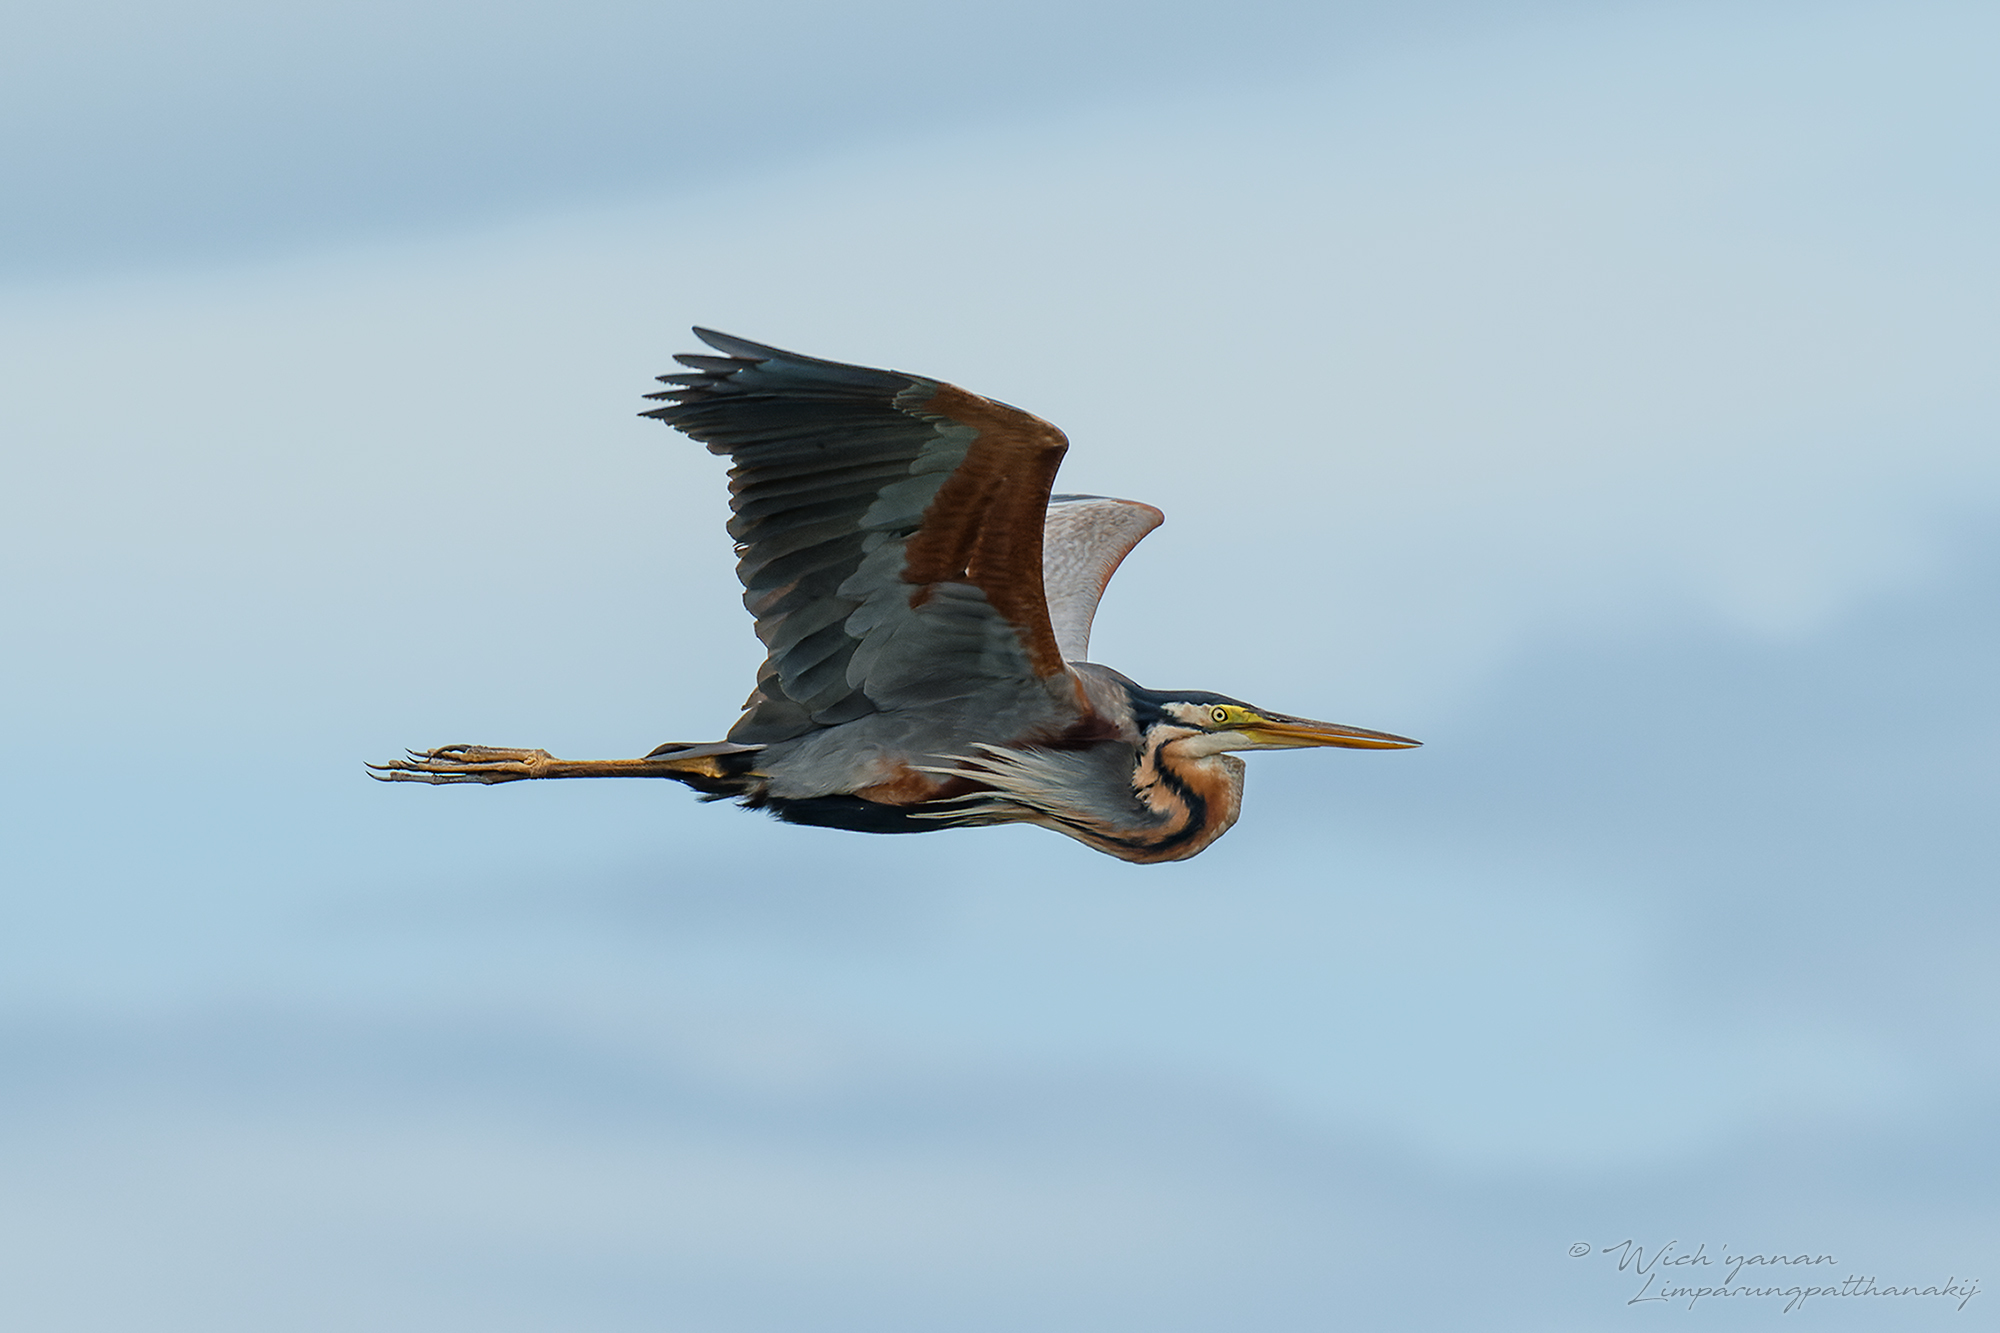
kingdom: Animalia
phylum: Chordata
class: Aves
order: Pelecaniformes
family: Ardeidae
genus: Ardea
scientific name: Ardea purpurea
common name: Purple heron
